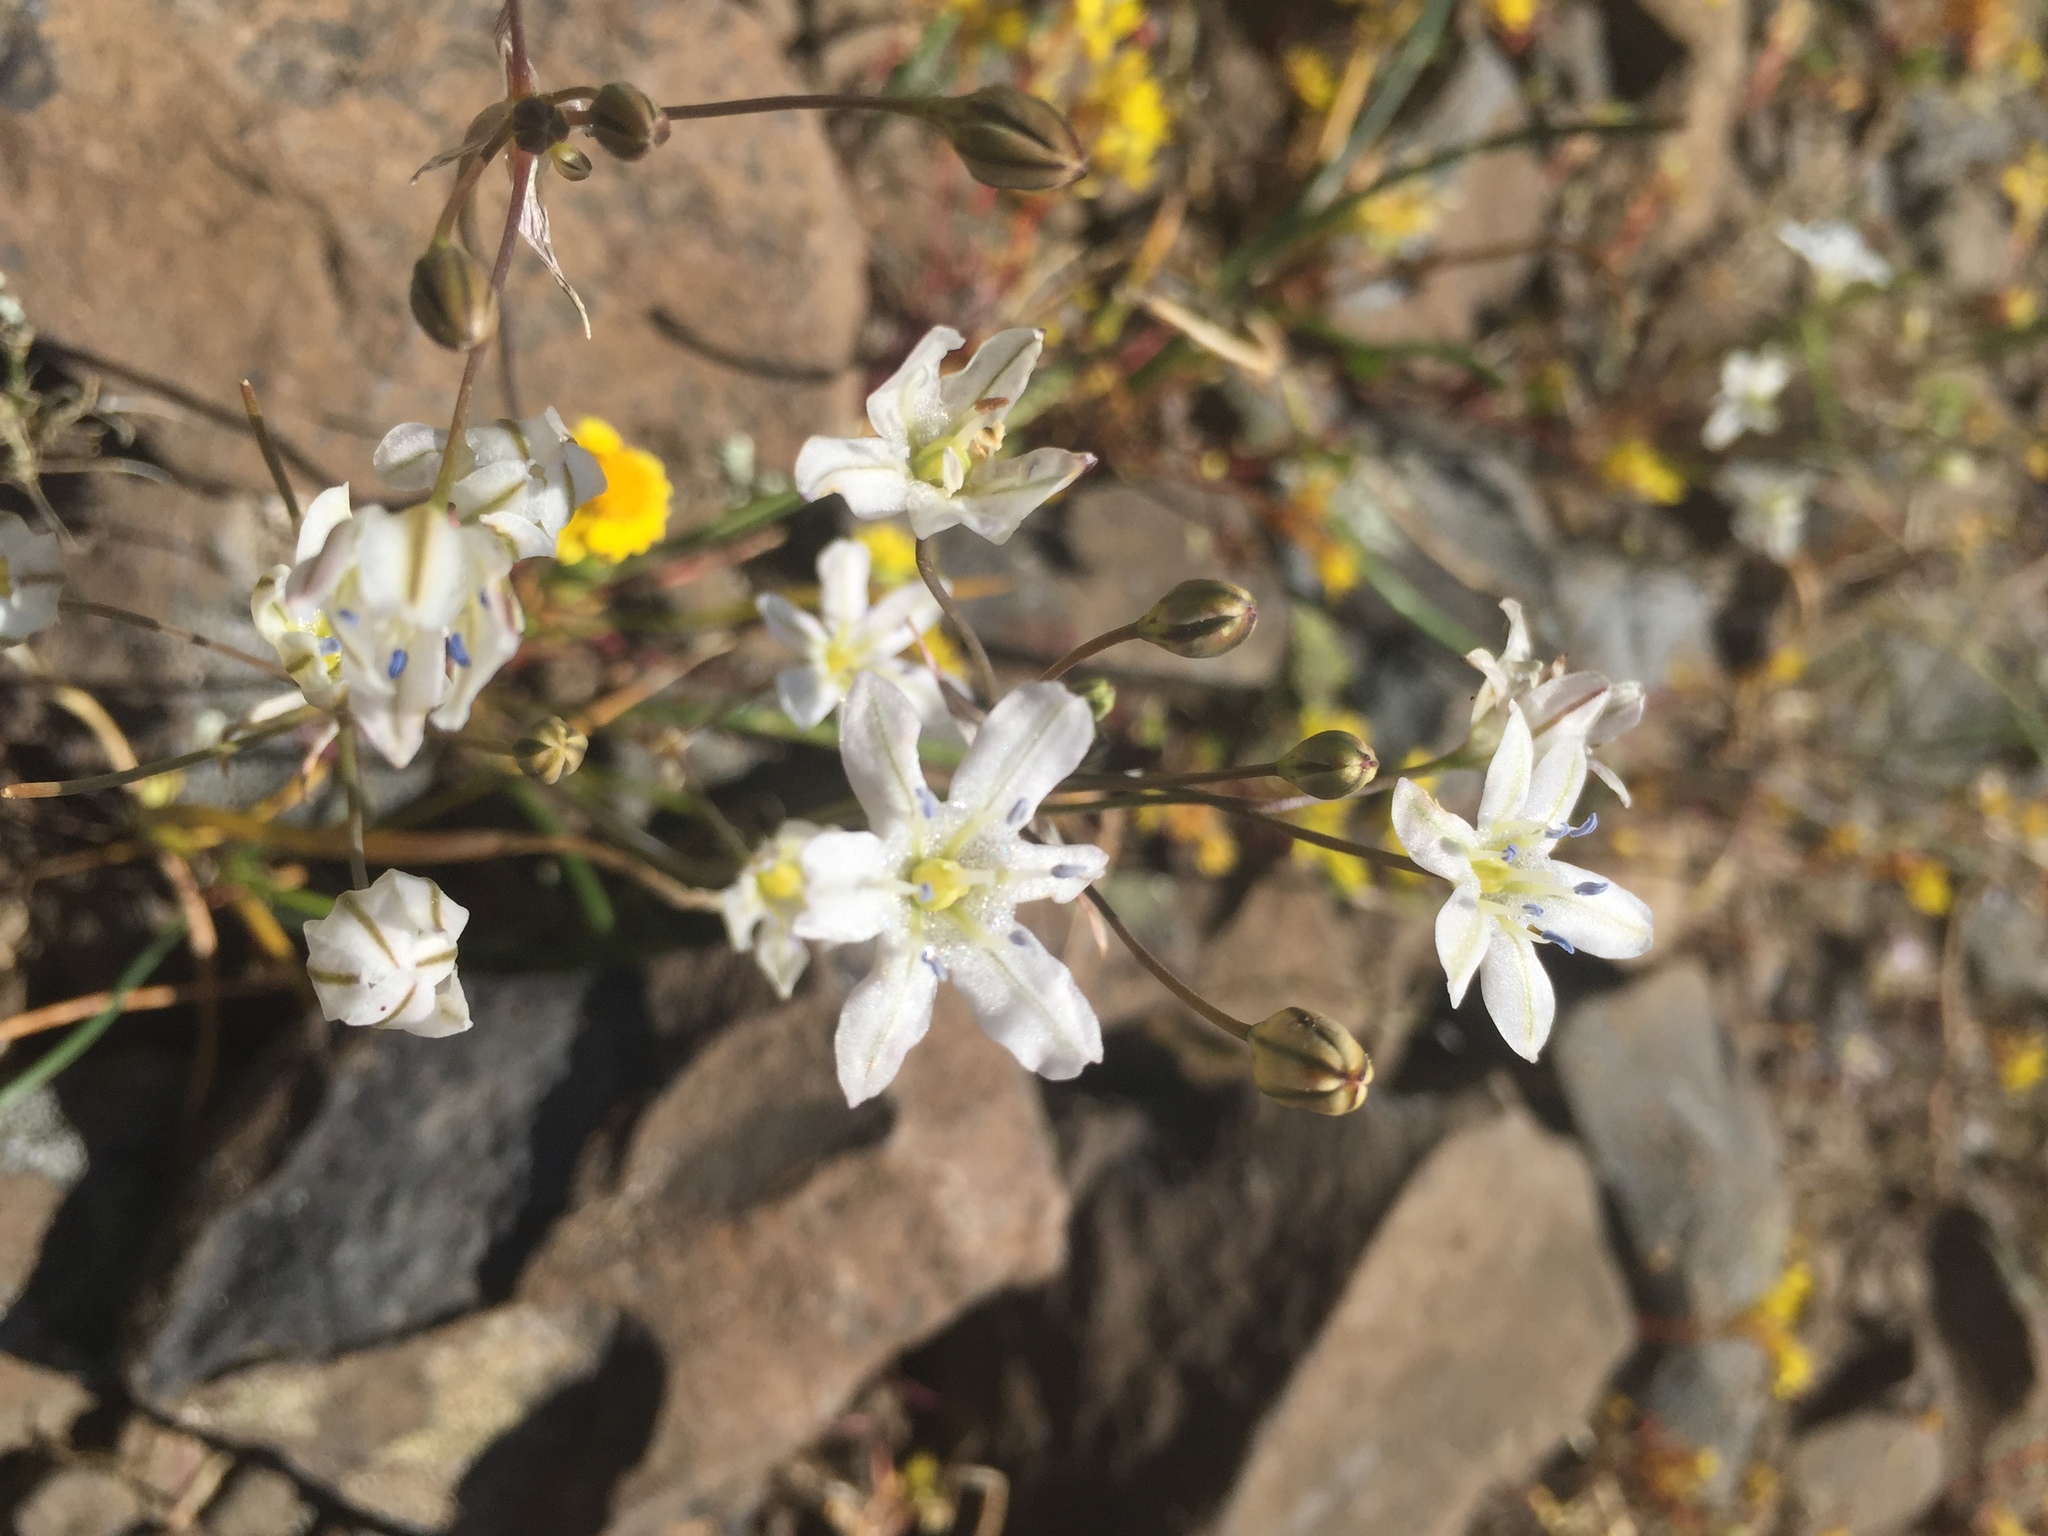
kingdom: Plantae
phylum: Tracheophyta
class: Liliopsida
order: Asparagales
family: Asparagaceae
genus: Triteleia
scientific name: Triteleia lilacina
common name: Lilac-flower wild hyacinth
